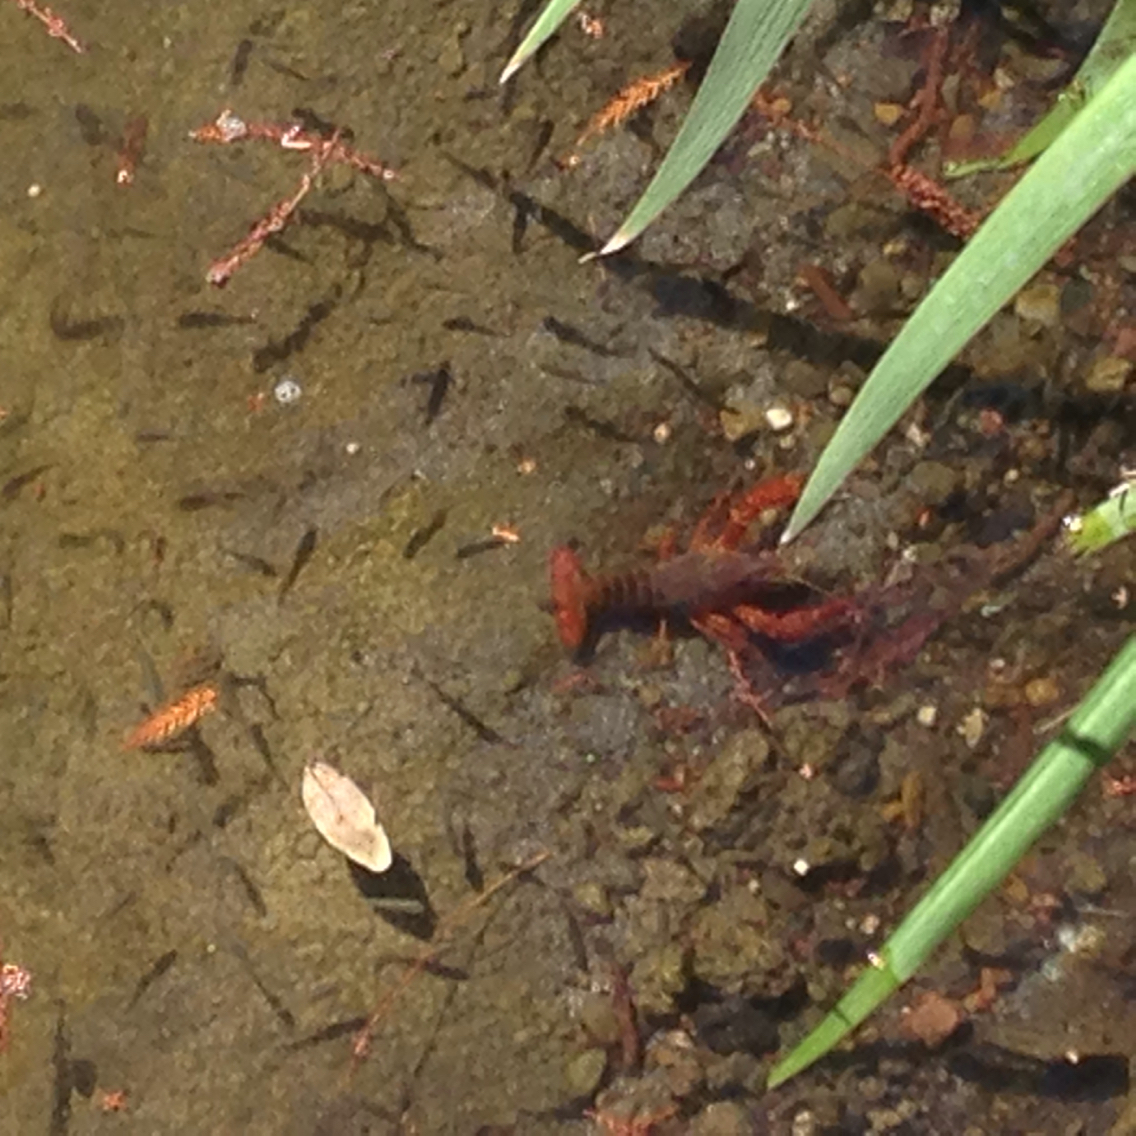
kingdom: Animalia
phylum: Arthropoda
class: Malacostraca
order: Decapoda
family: Cambaridae
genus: Procambarus
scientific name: Procambarus clarkii
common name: Red swamp crayfish
